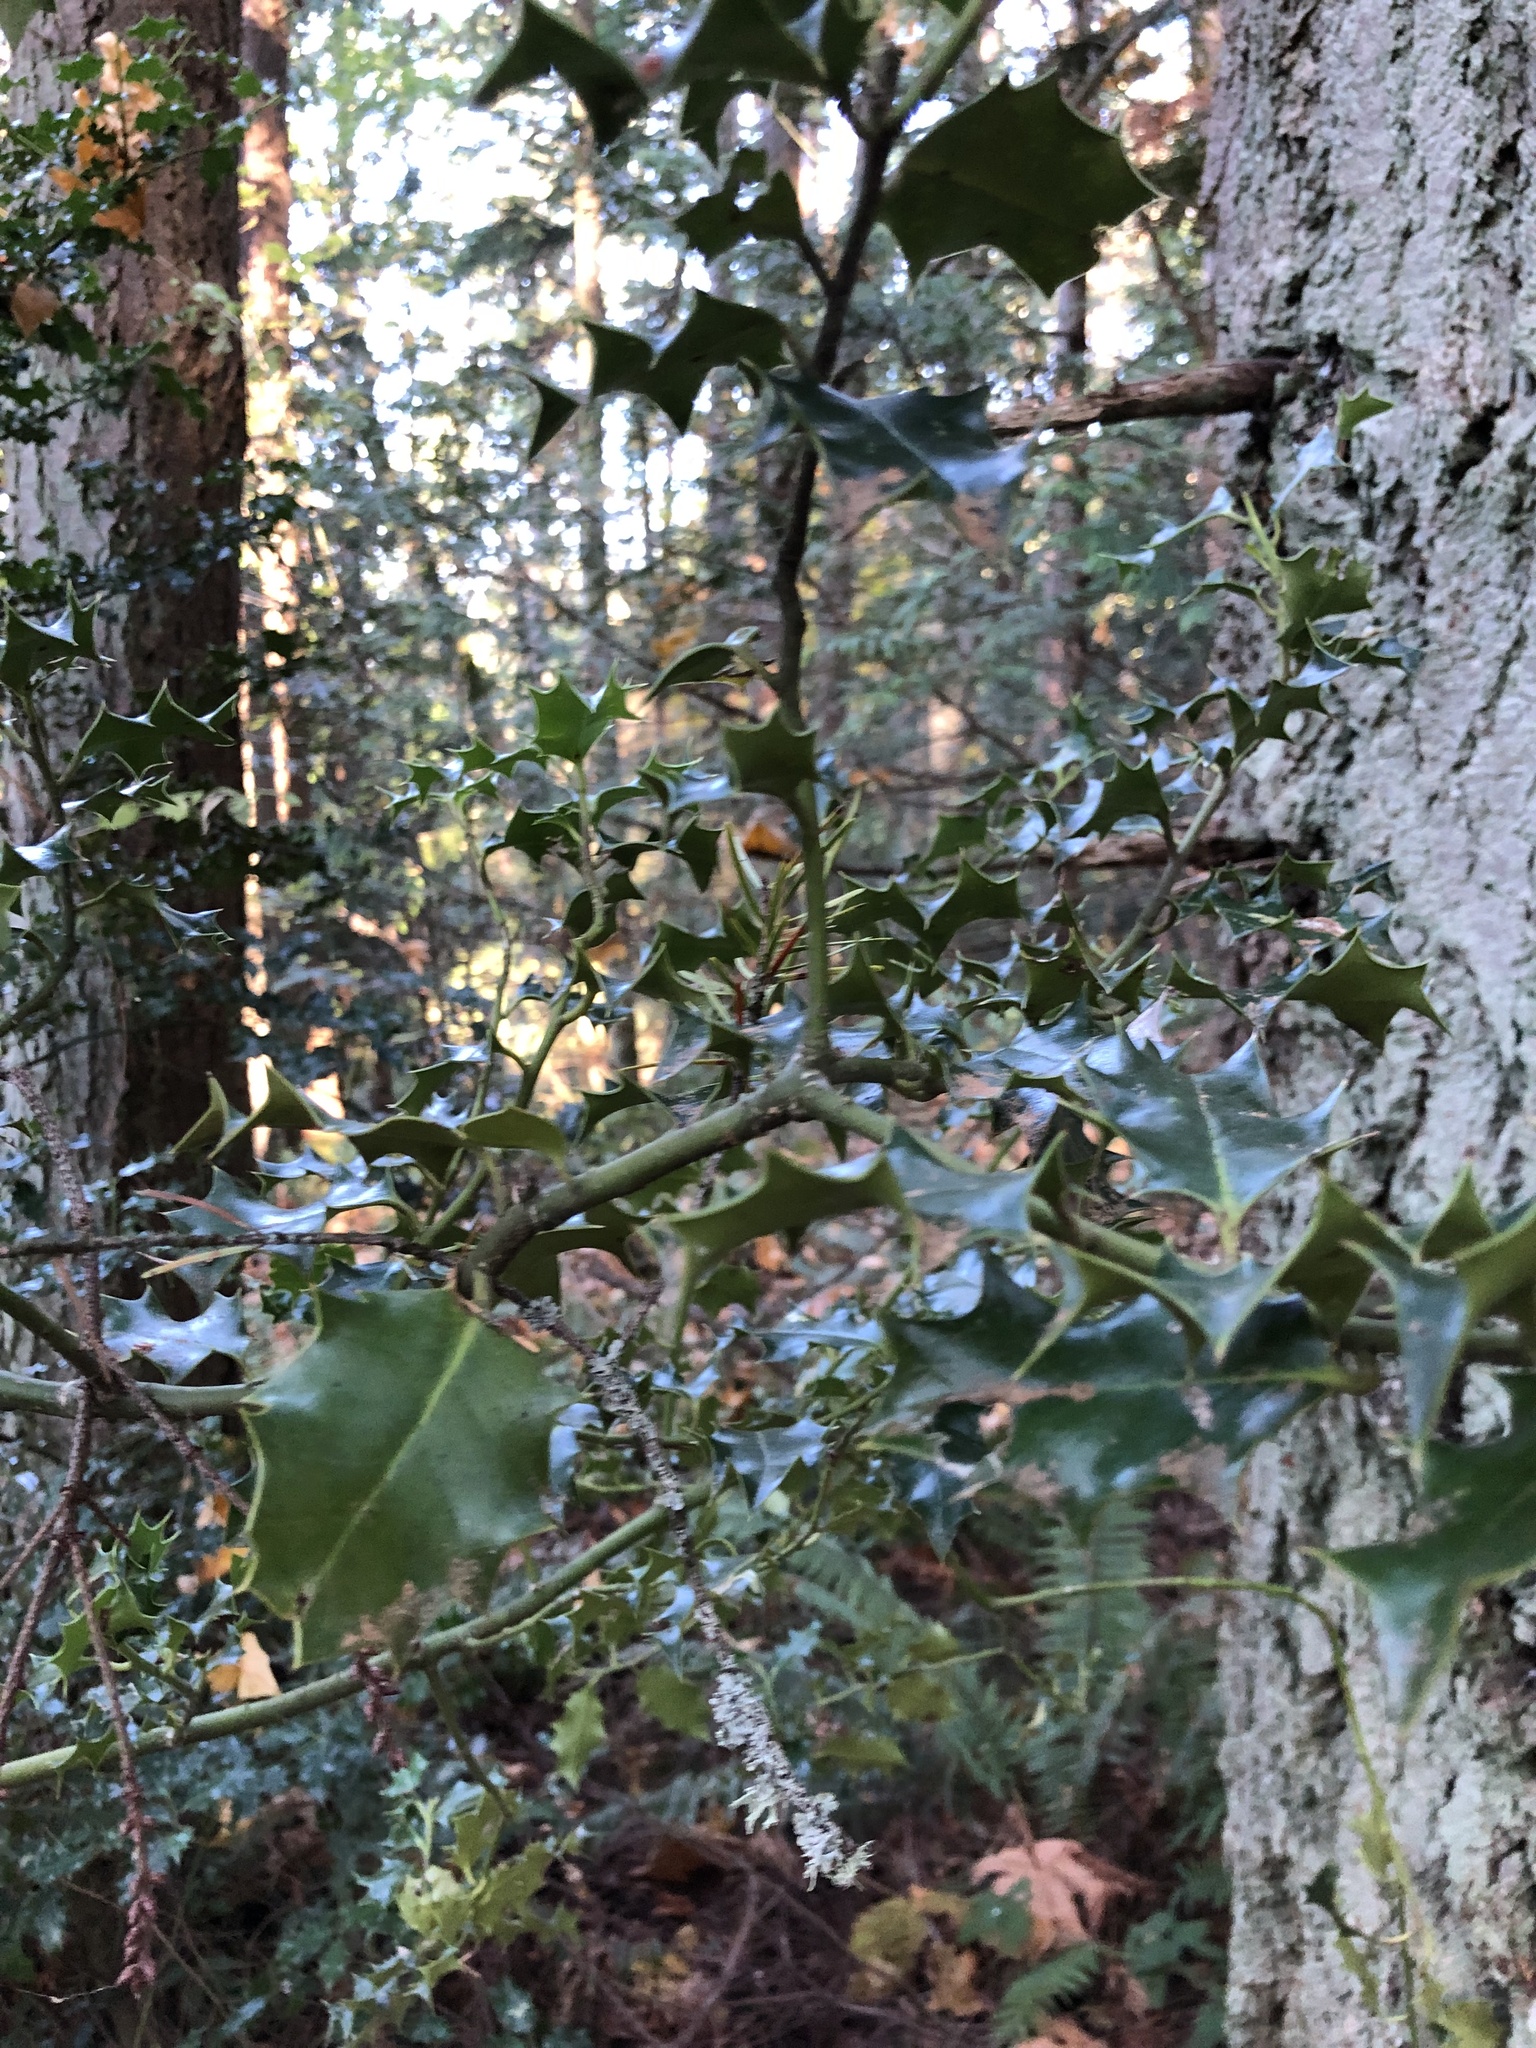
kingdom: Plantae
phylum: Tracheophyta
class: Magnoliopsida
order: Aquifoliales
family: Aquifoliaceae
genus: Ilex
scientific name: Ilex aquifolium
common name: English holly
